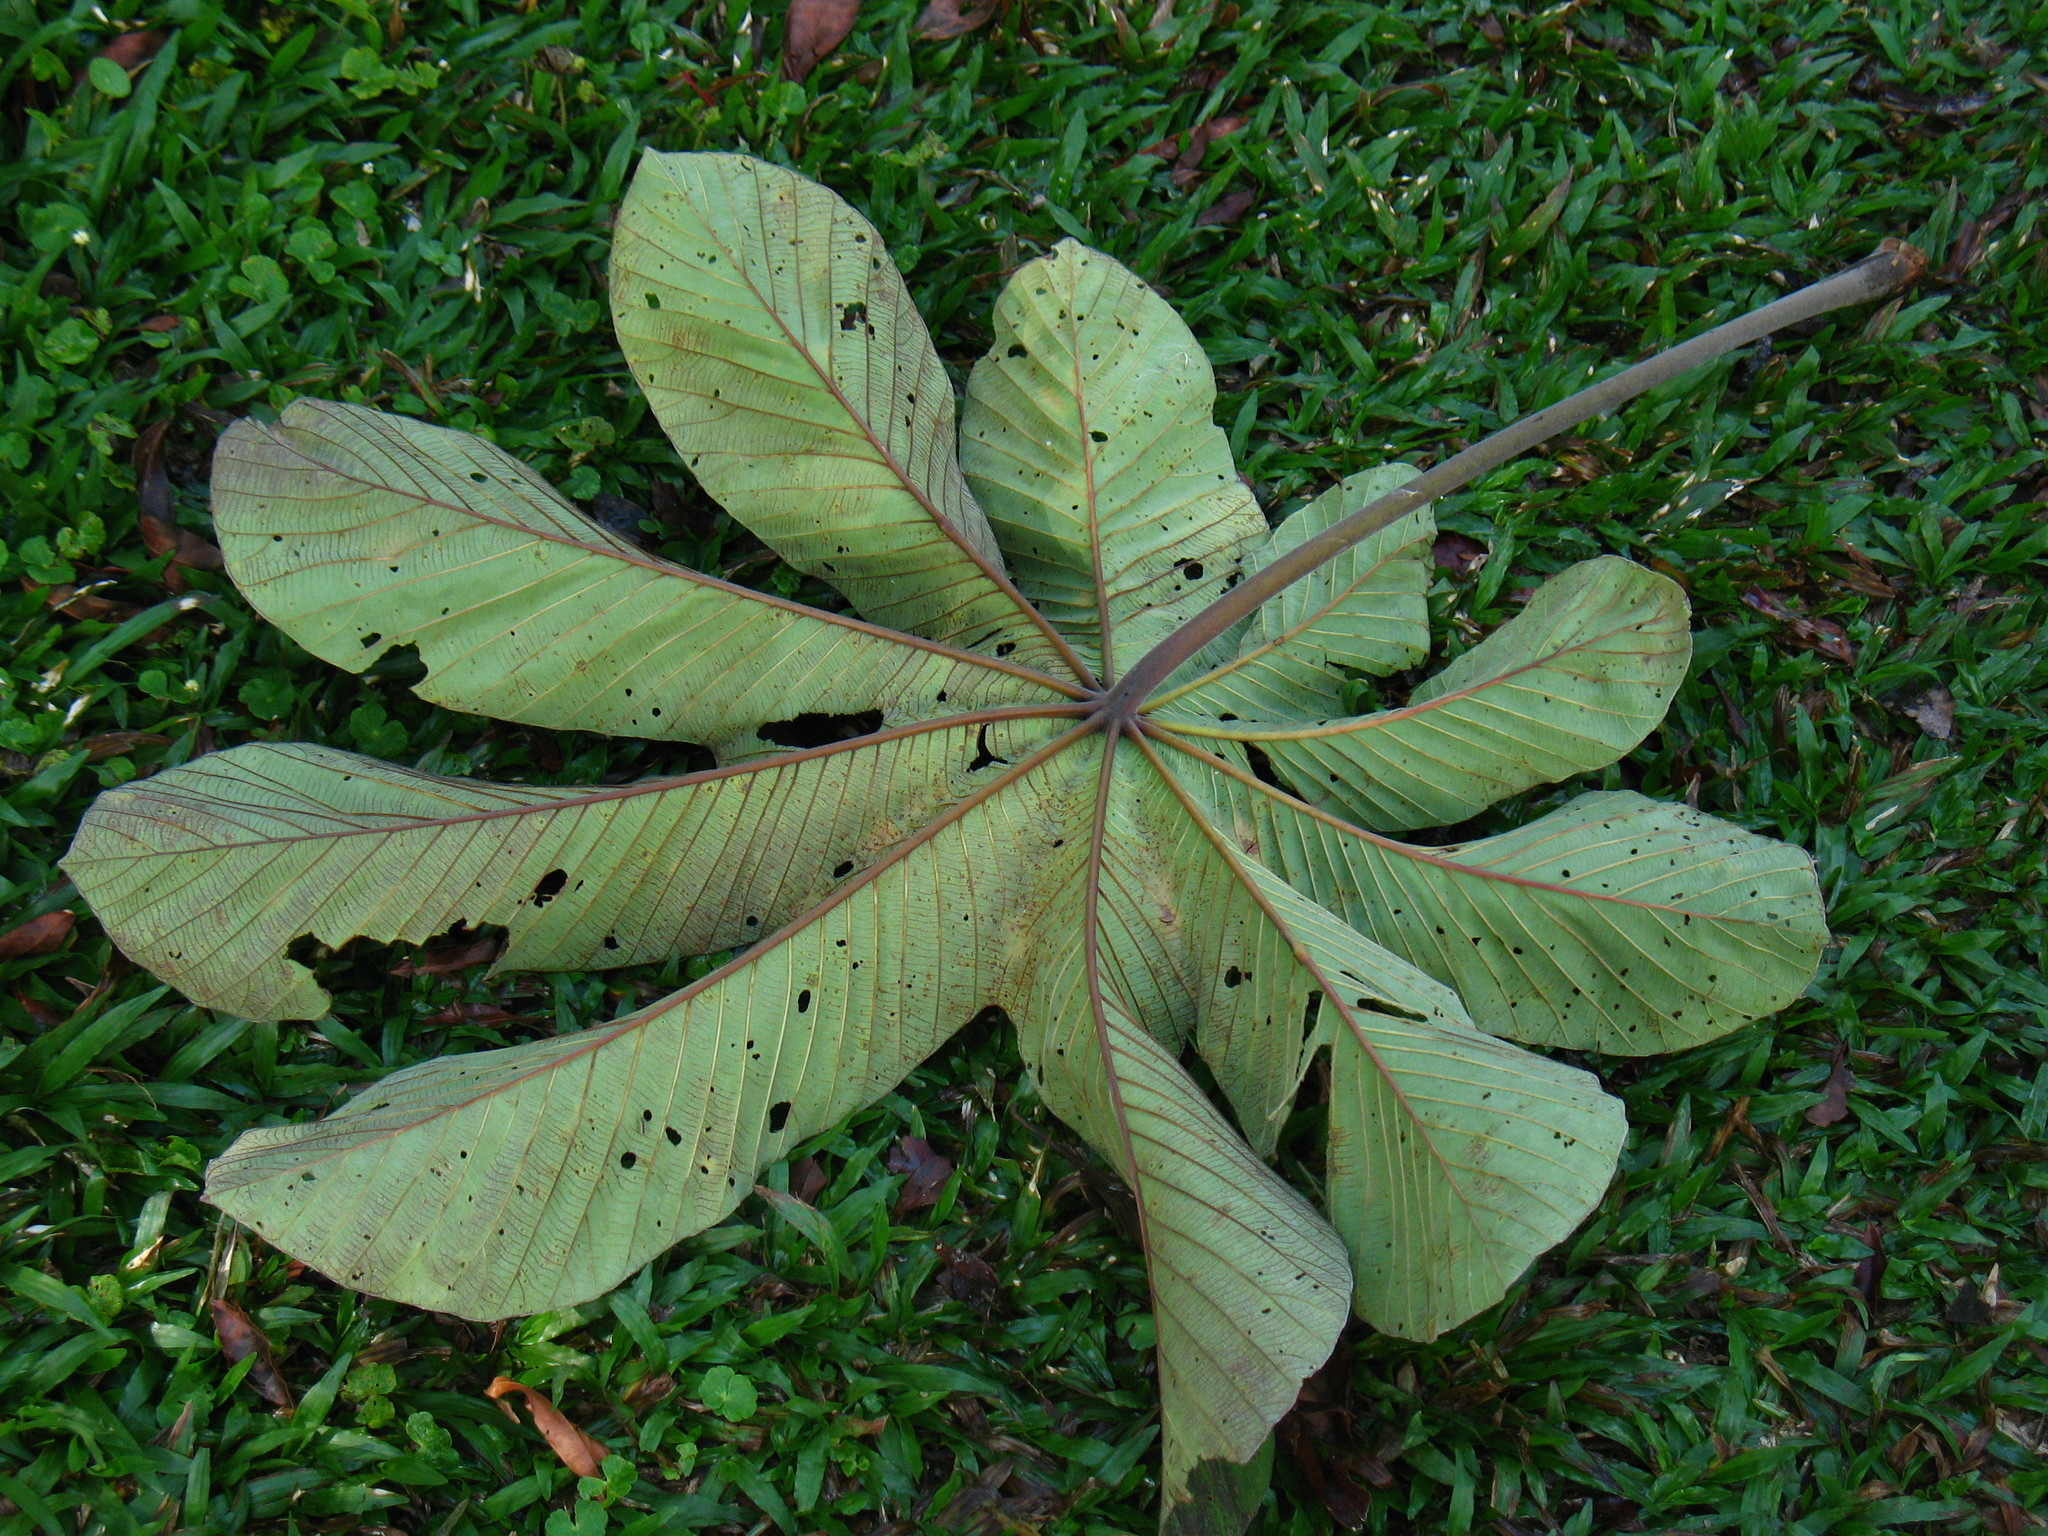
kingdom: Plantae
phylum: Tracheophyta
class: Magnoliopsida
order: Rosales
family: Urticaceae
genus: Cecropia
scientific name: Cecropia obtusifolia
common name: Trumpet tree
